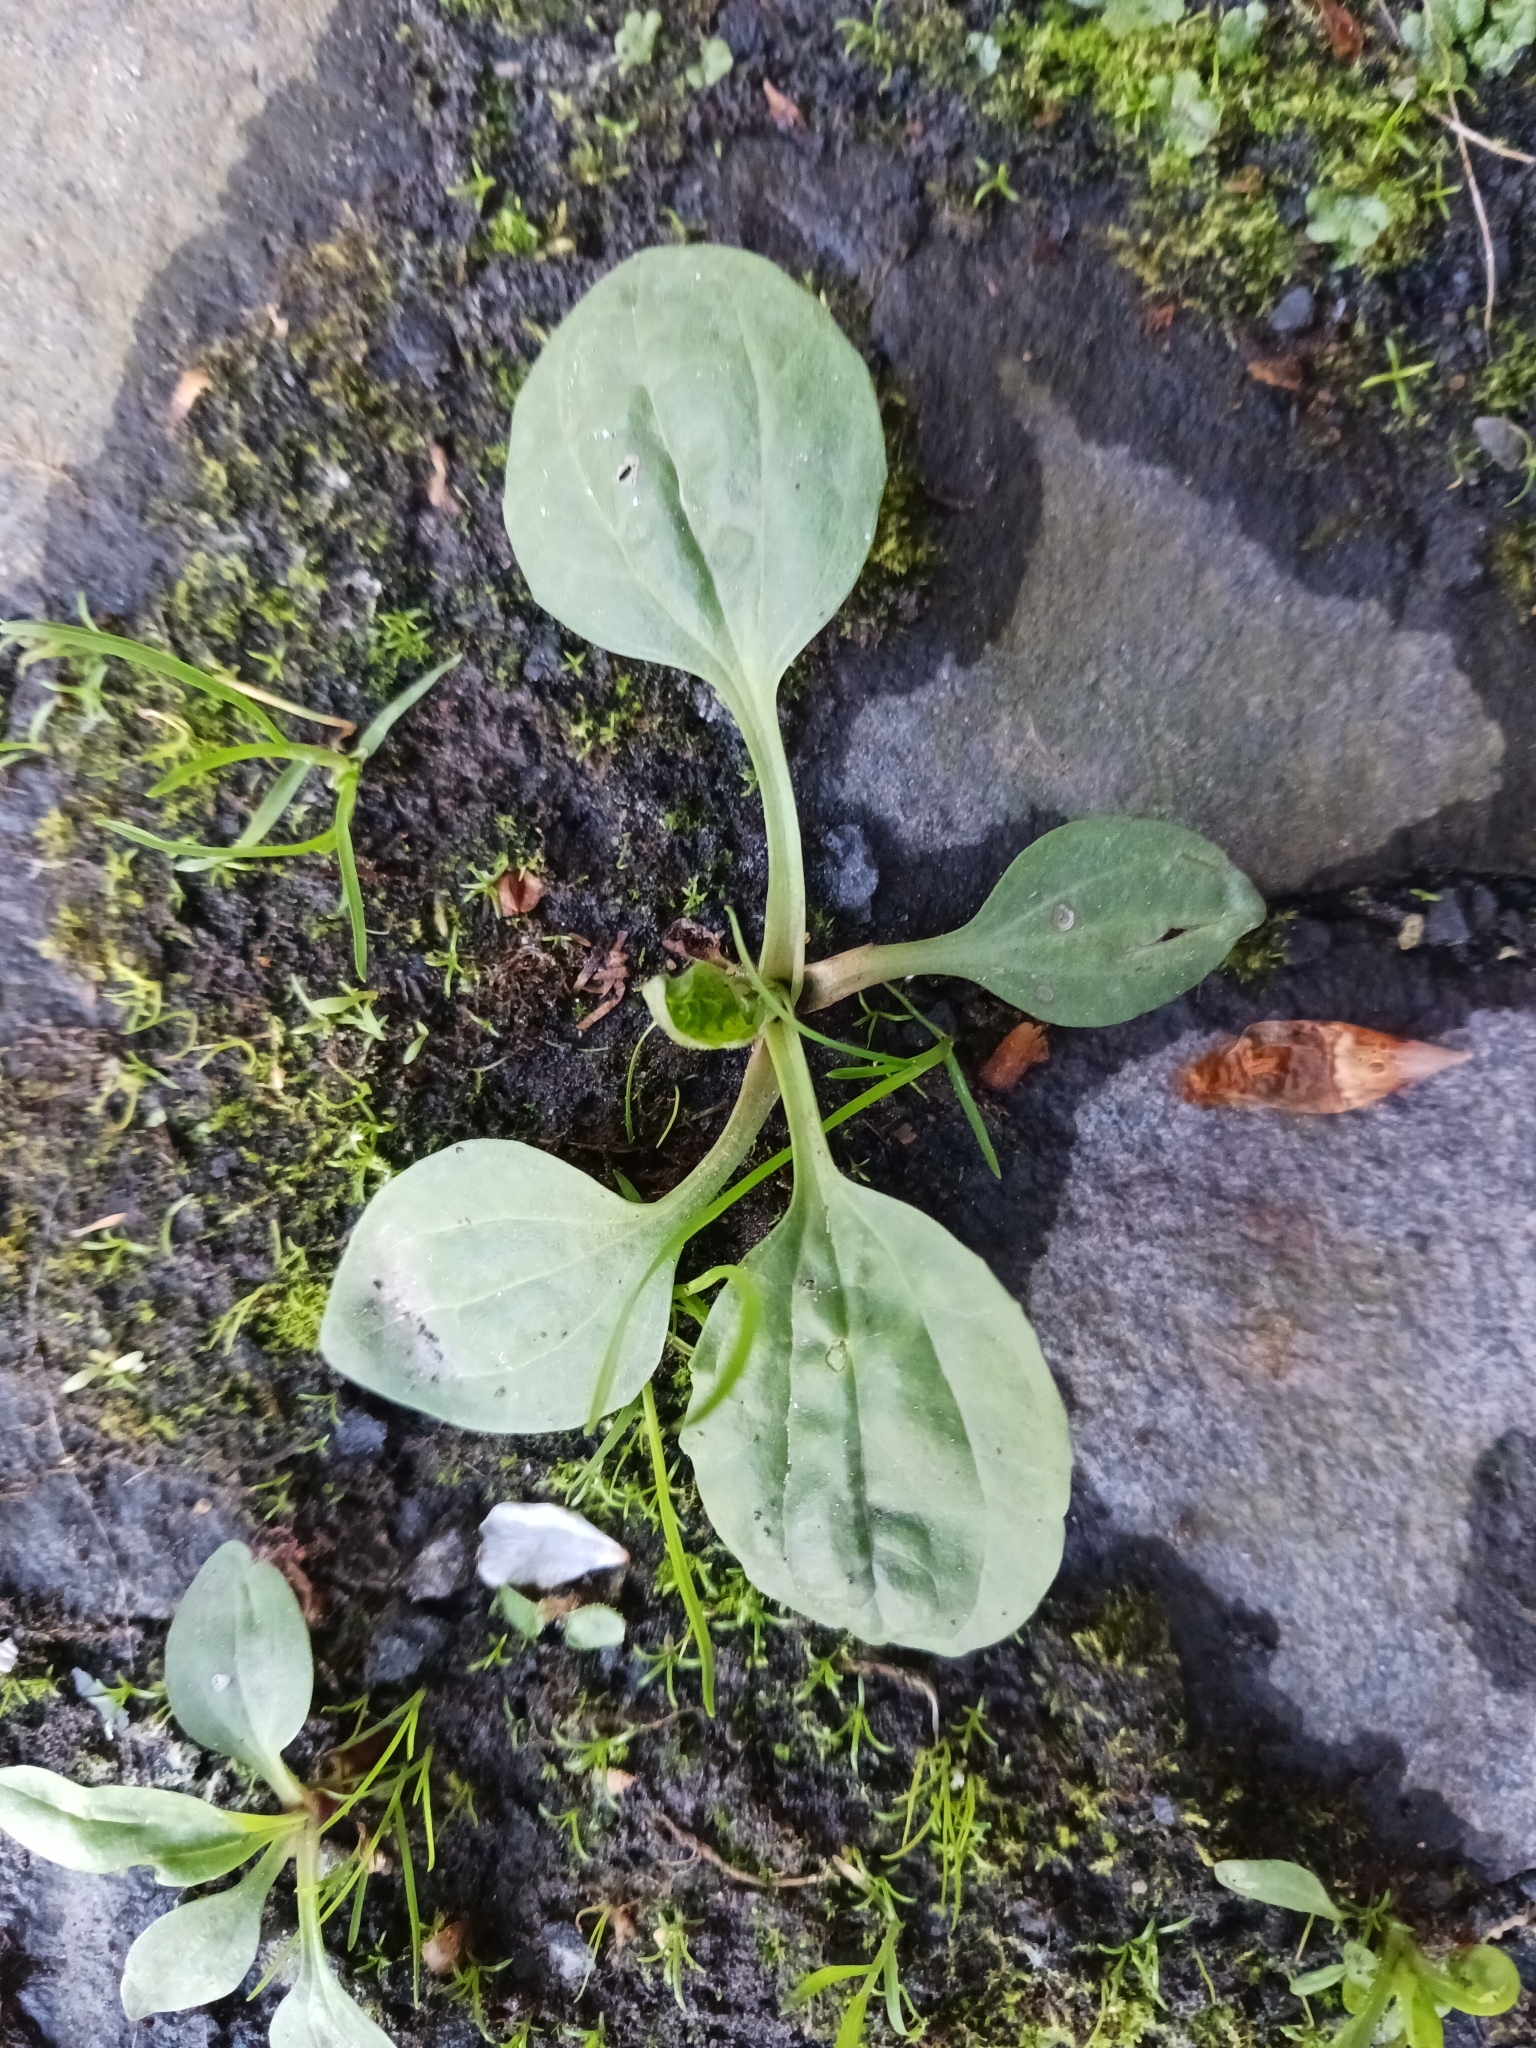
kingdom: Plantae
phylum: Tracheophyta
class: Magnoliopsida
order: Lamiales
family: Plantaginaceae
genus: Plantago
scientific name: Plantago major
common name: Common plantain
